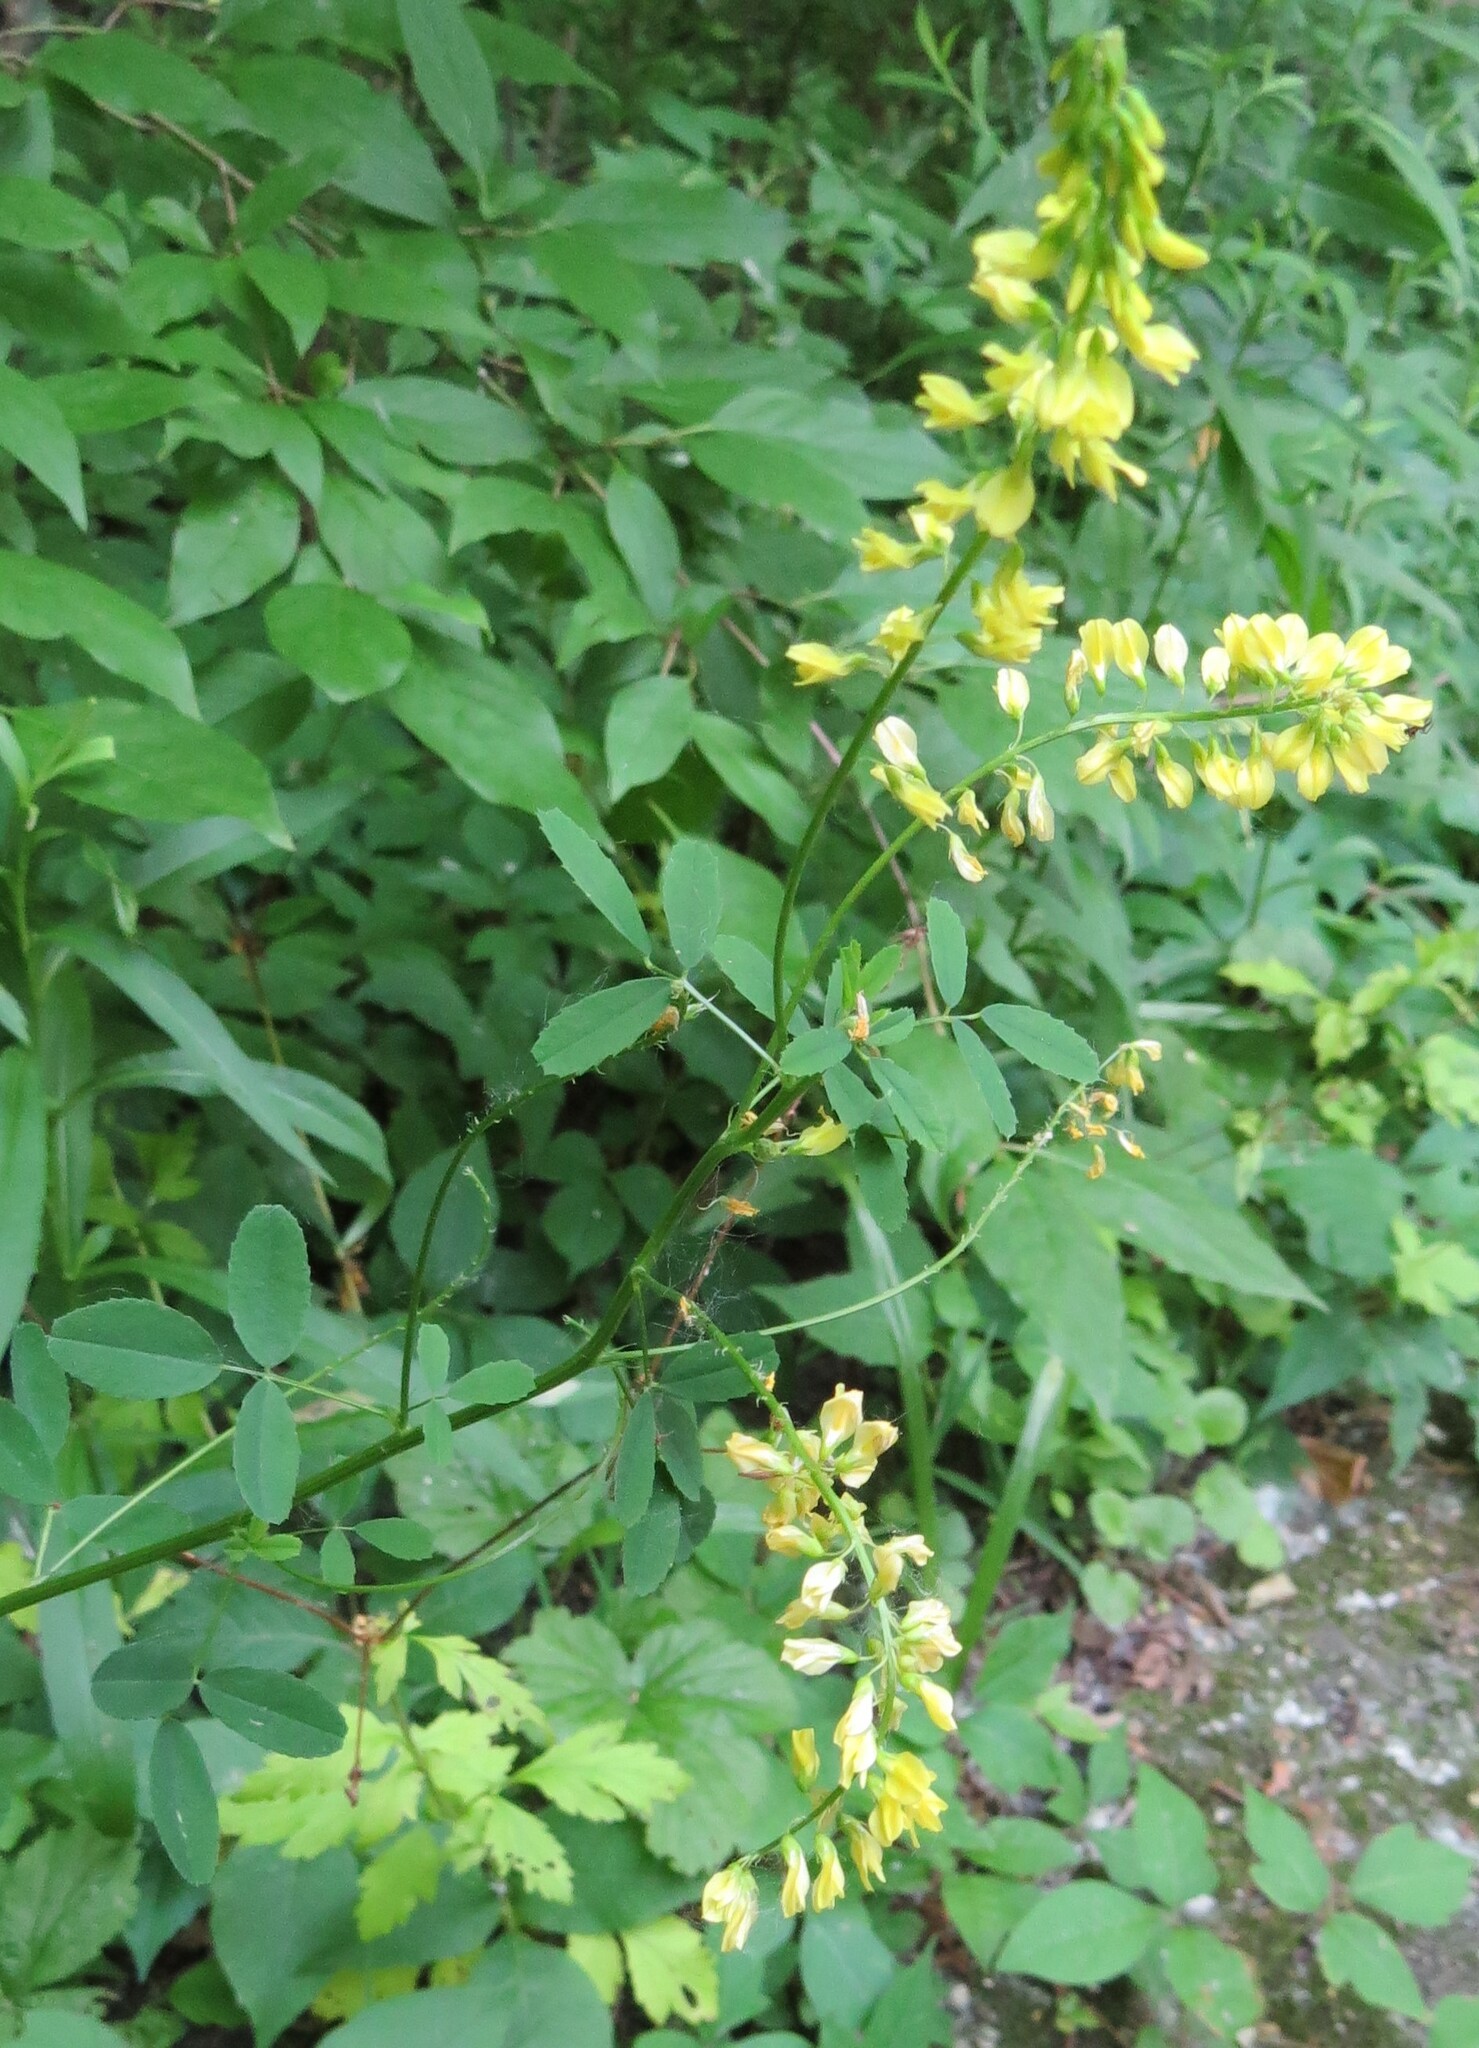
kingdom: Plantae
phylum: Tracheophyta
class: Magnoliopsida
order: Fabales
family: Fabaceae
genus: Melilotus
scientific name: Melilotus officinalis
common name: Sweetclover
